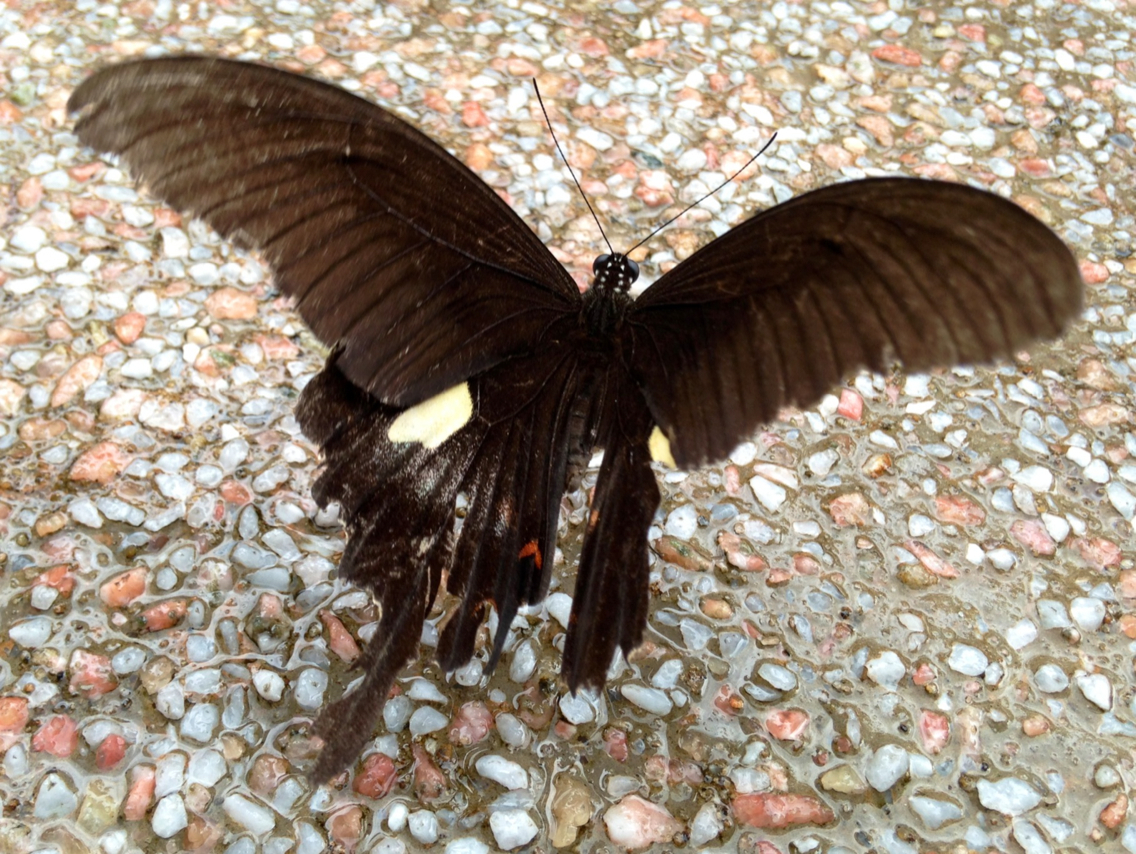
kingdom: Animalia
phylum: Arthropoda
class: Insecta
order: Lepidoptera
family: Papilionidae
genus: Papilio
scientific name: Papilio helenus
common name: Red helen
